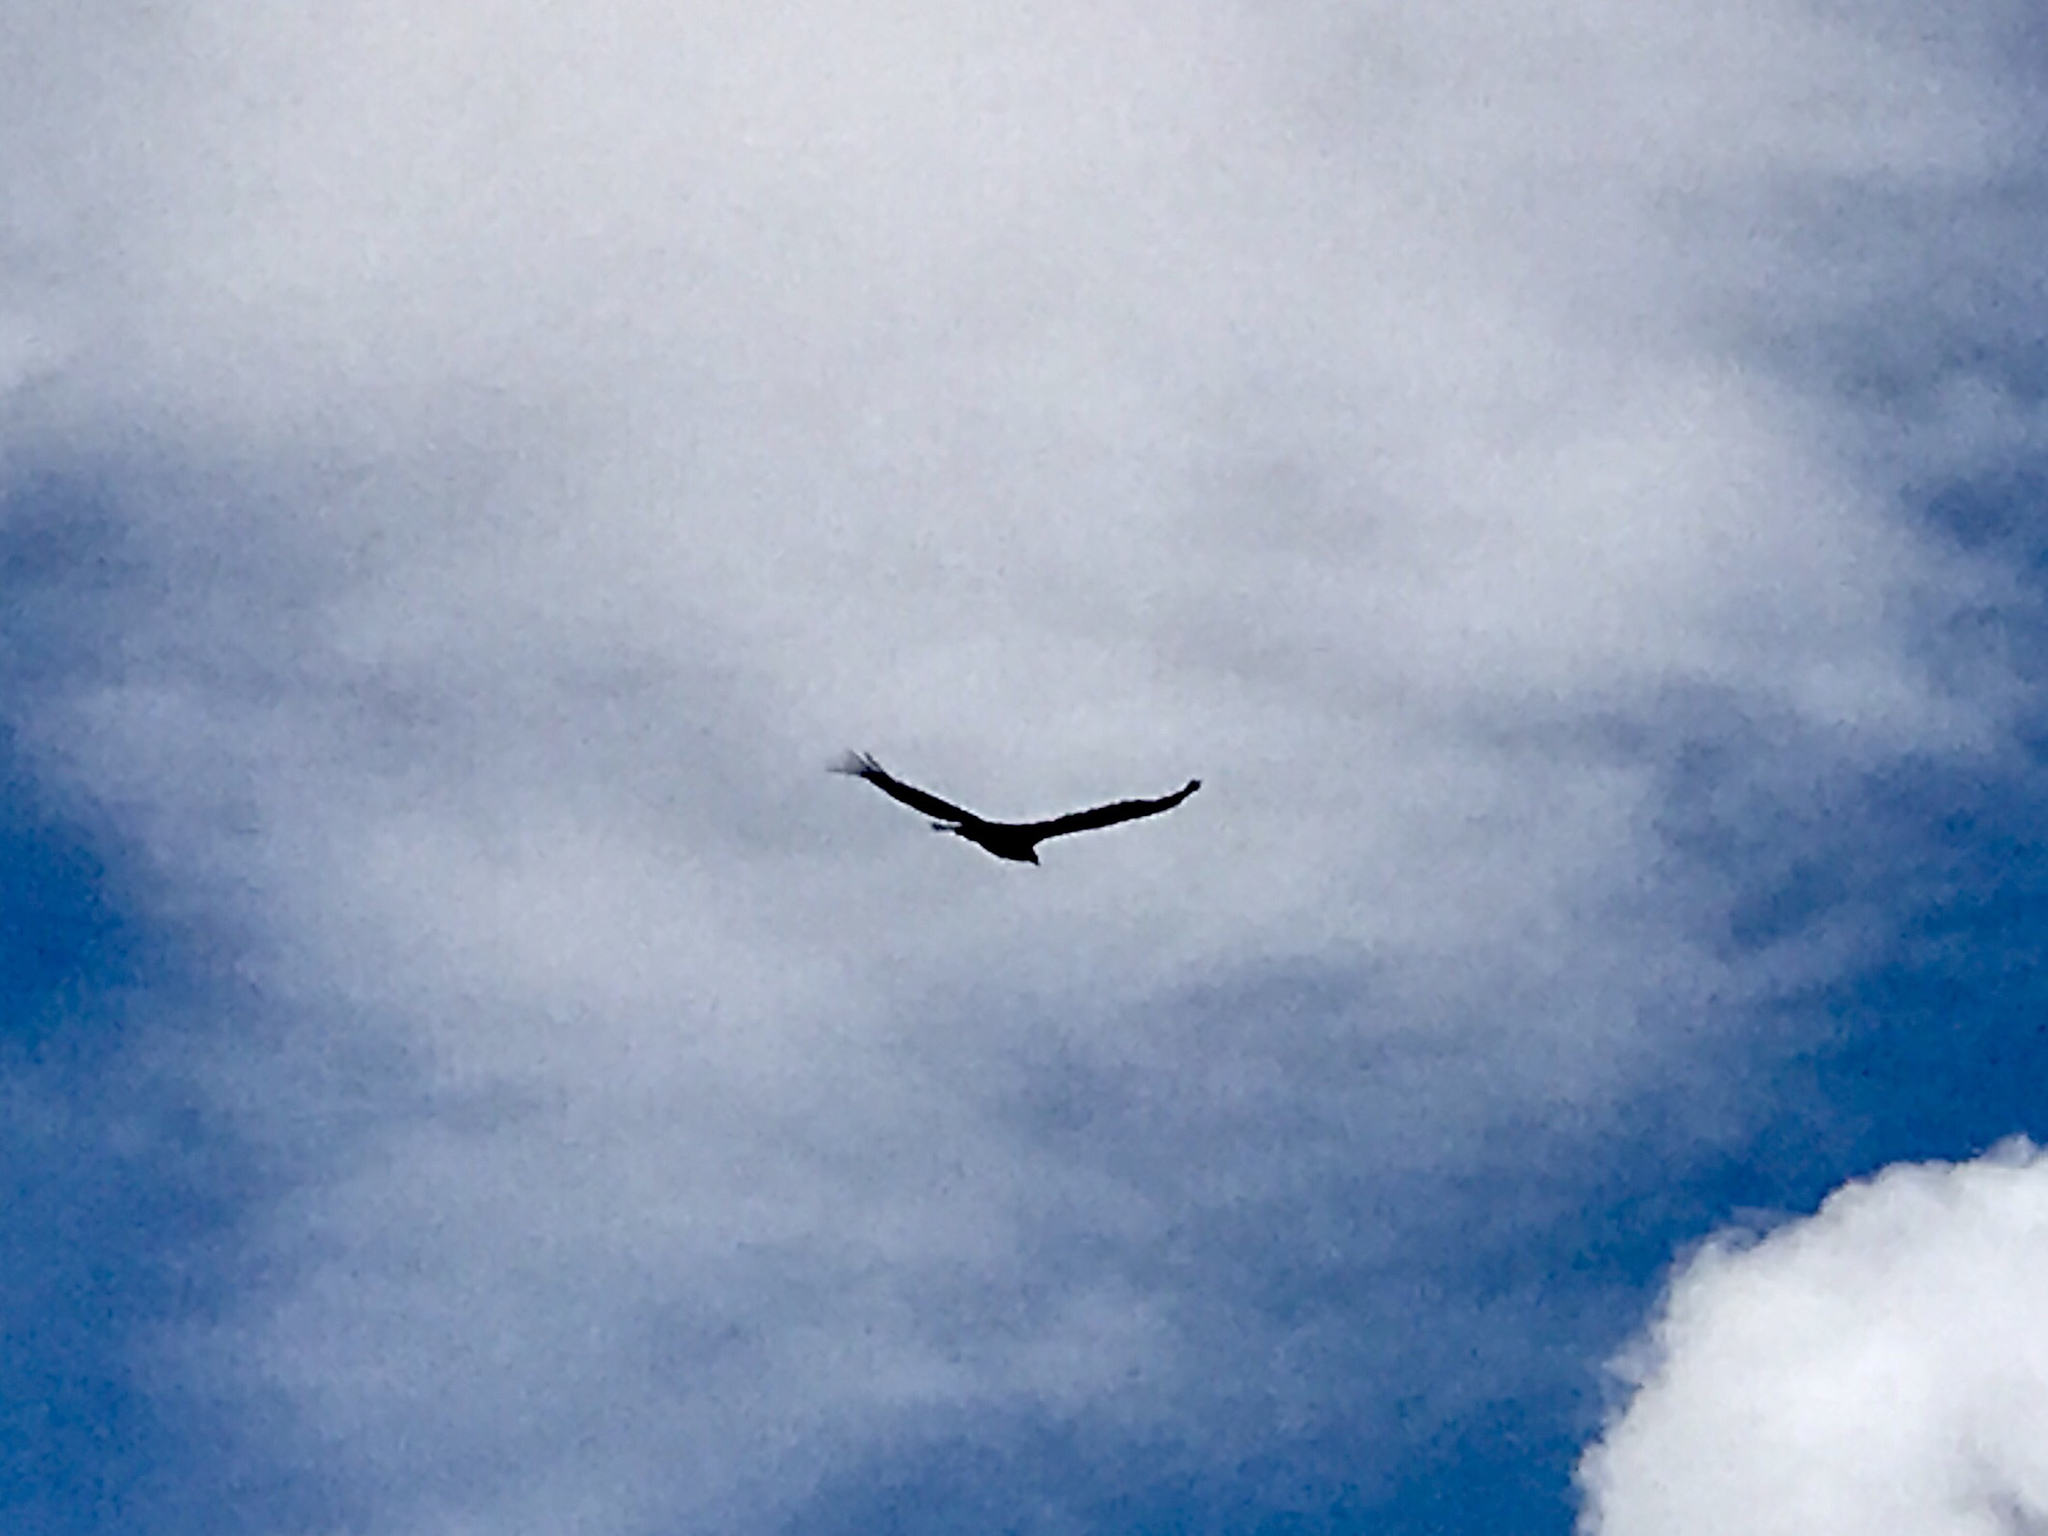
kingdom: Animalia
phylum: Chordata
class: Aves
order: Accipitriformes
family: Cathartidae
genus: Cathartes
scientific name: Cathartes aura
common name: Turkey vulture
